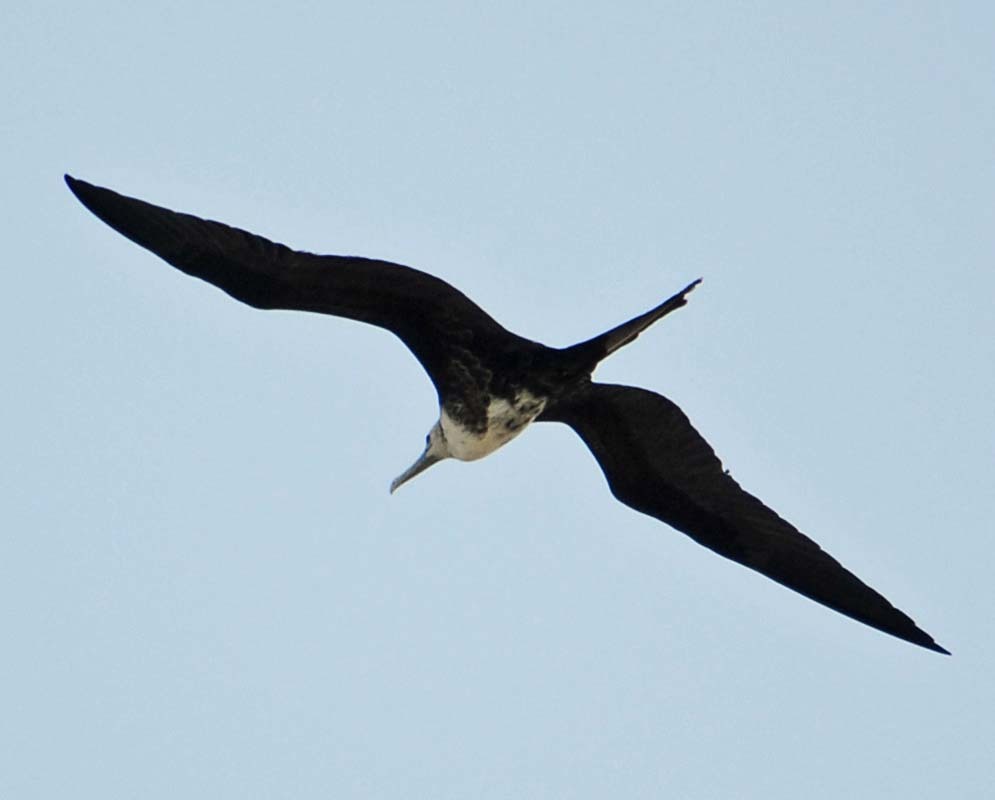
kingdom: Animalia
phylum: Chordata
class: Aves
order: Suliformes
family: Fregatidae
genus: Fregata
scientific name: Fregata magnificens
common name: Magnificent frigatebird
